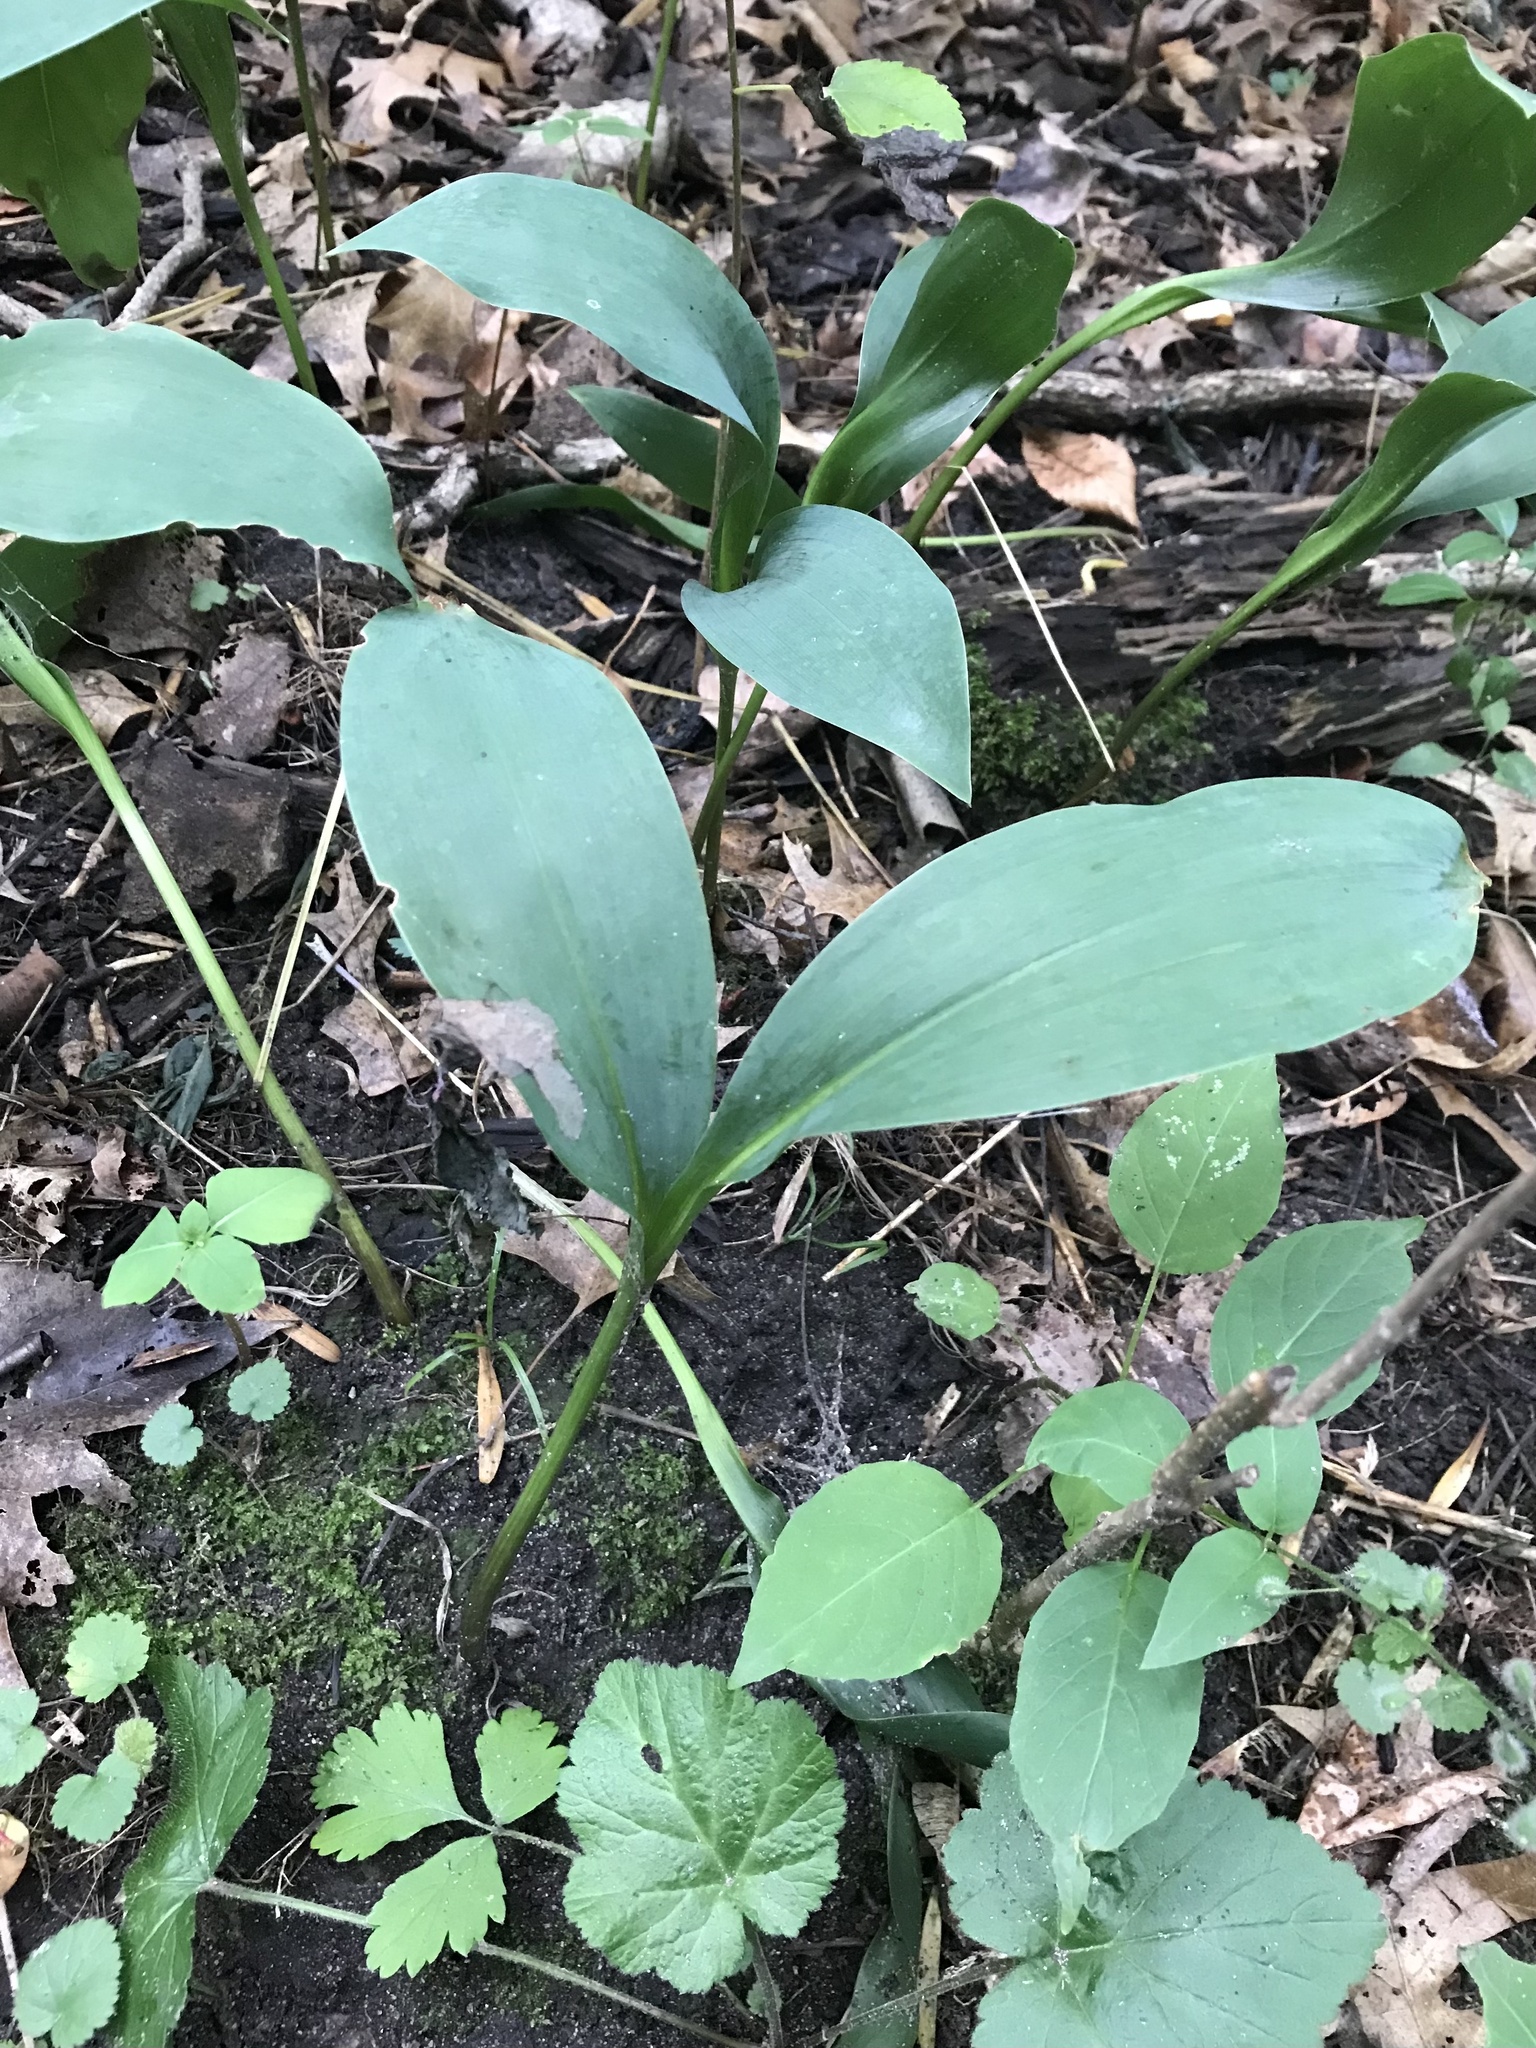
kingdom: Plantae
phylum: Tracheophyta
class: Liliopsida
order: Asparagales
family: Asparagaceae
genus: Convallaria
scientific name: Convallaria majalis
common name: Lily-of-the-valley
